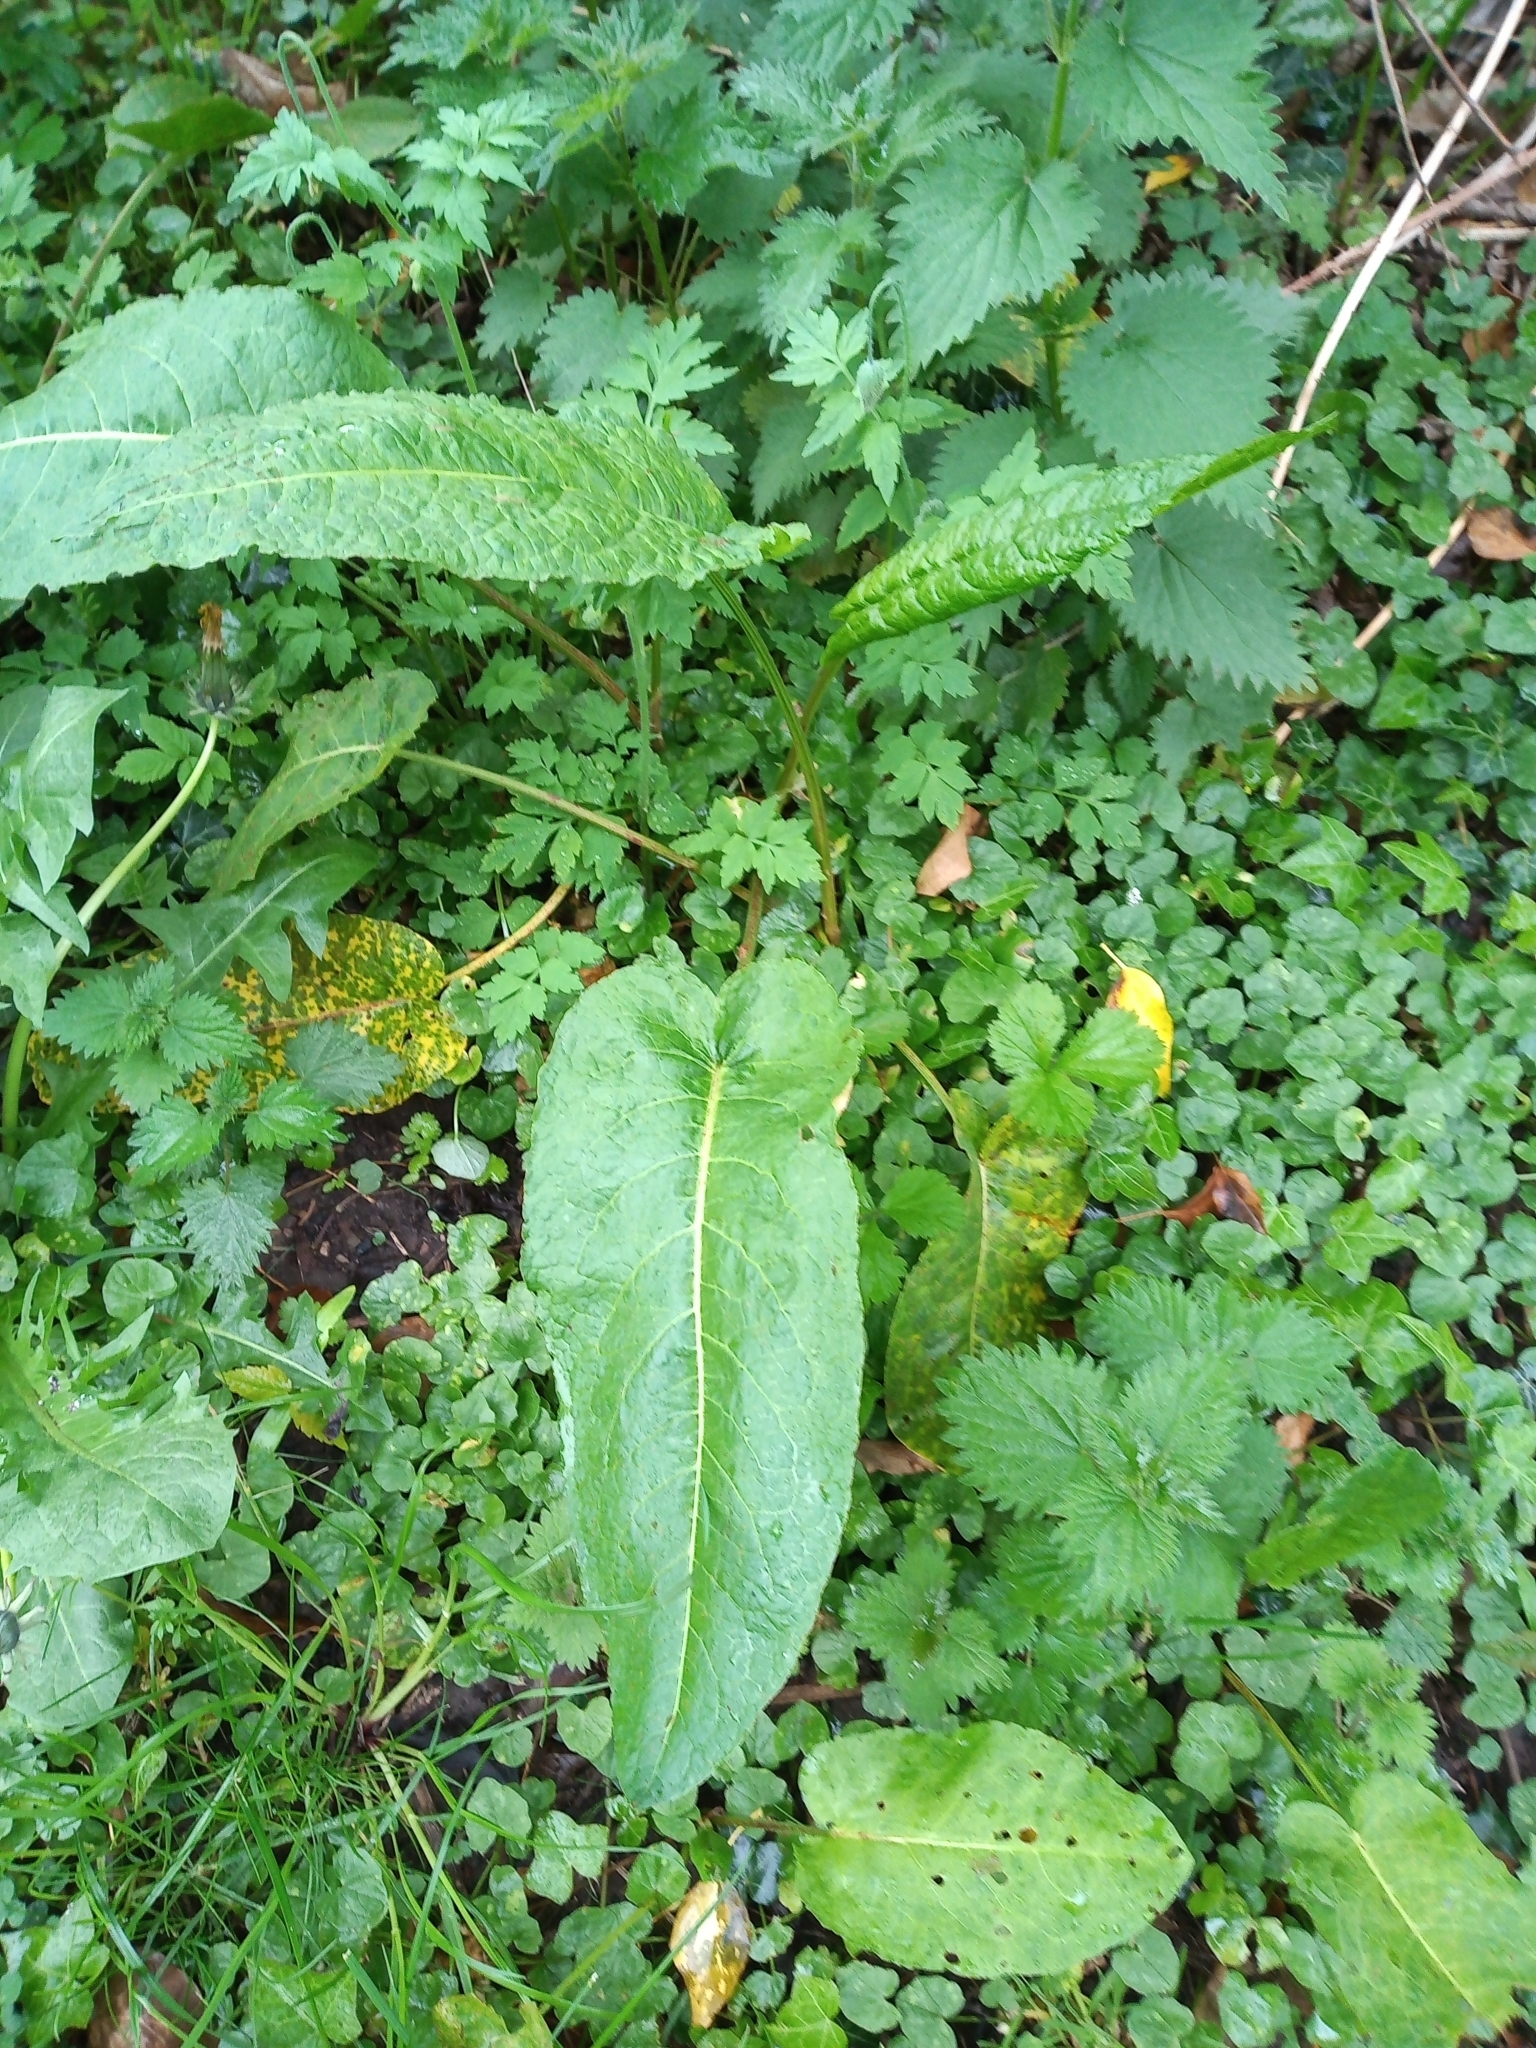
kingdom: Plantae
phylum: Tracheophyta
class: Magnoliopsida
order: Caryophyllales
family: Polygonaceae
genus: Rumex
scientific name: Rumex obtusifolius
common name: Bitter dock
